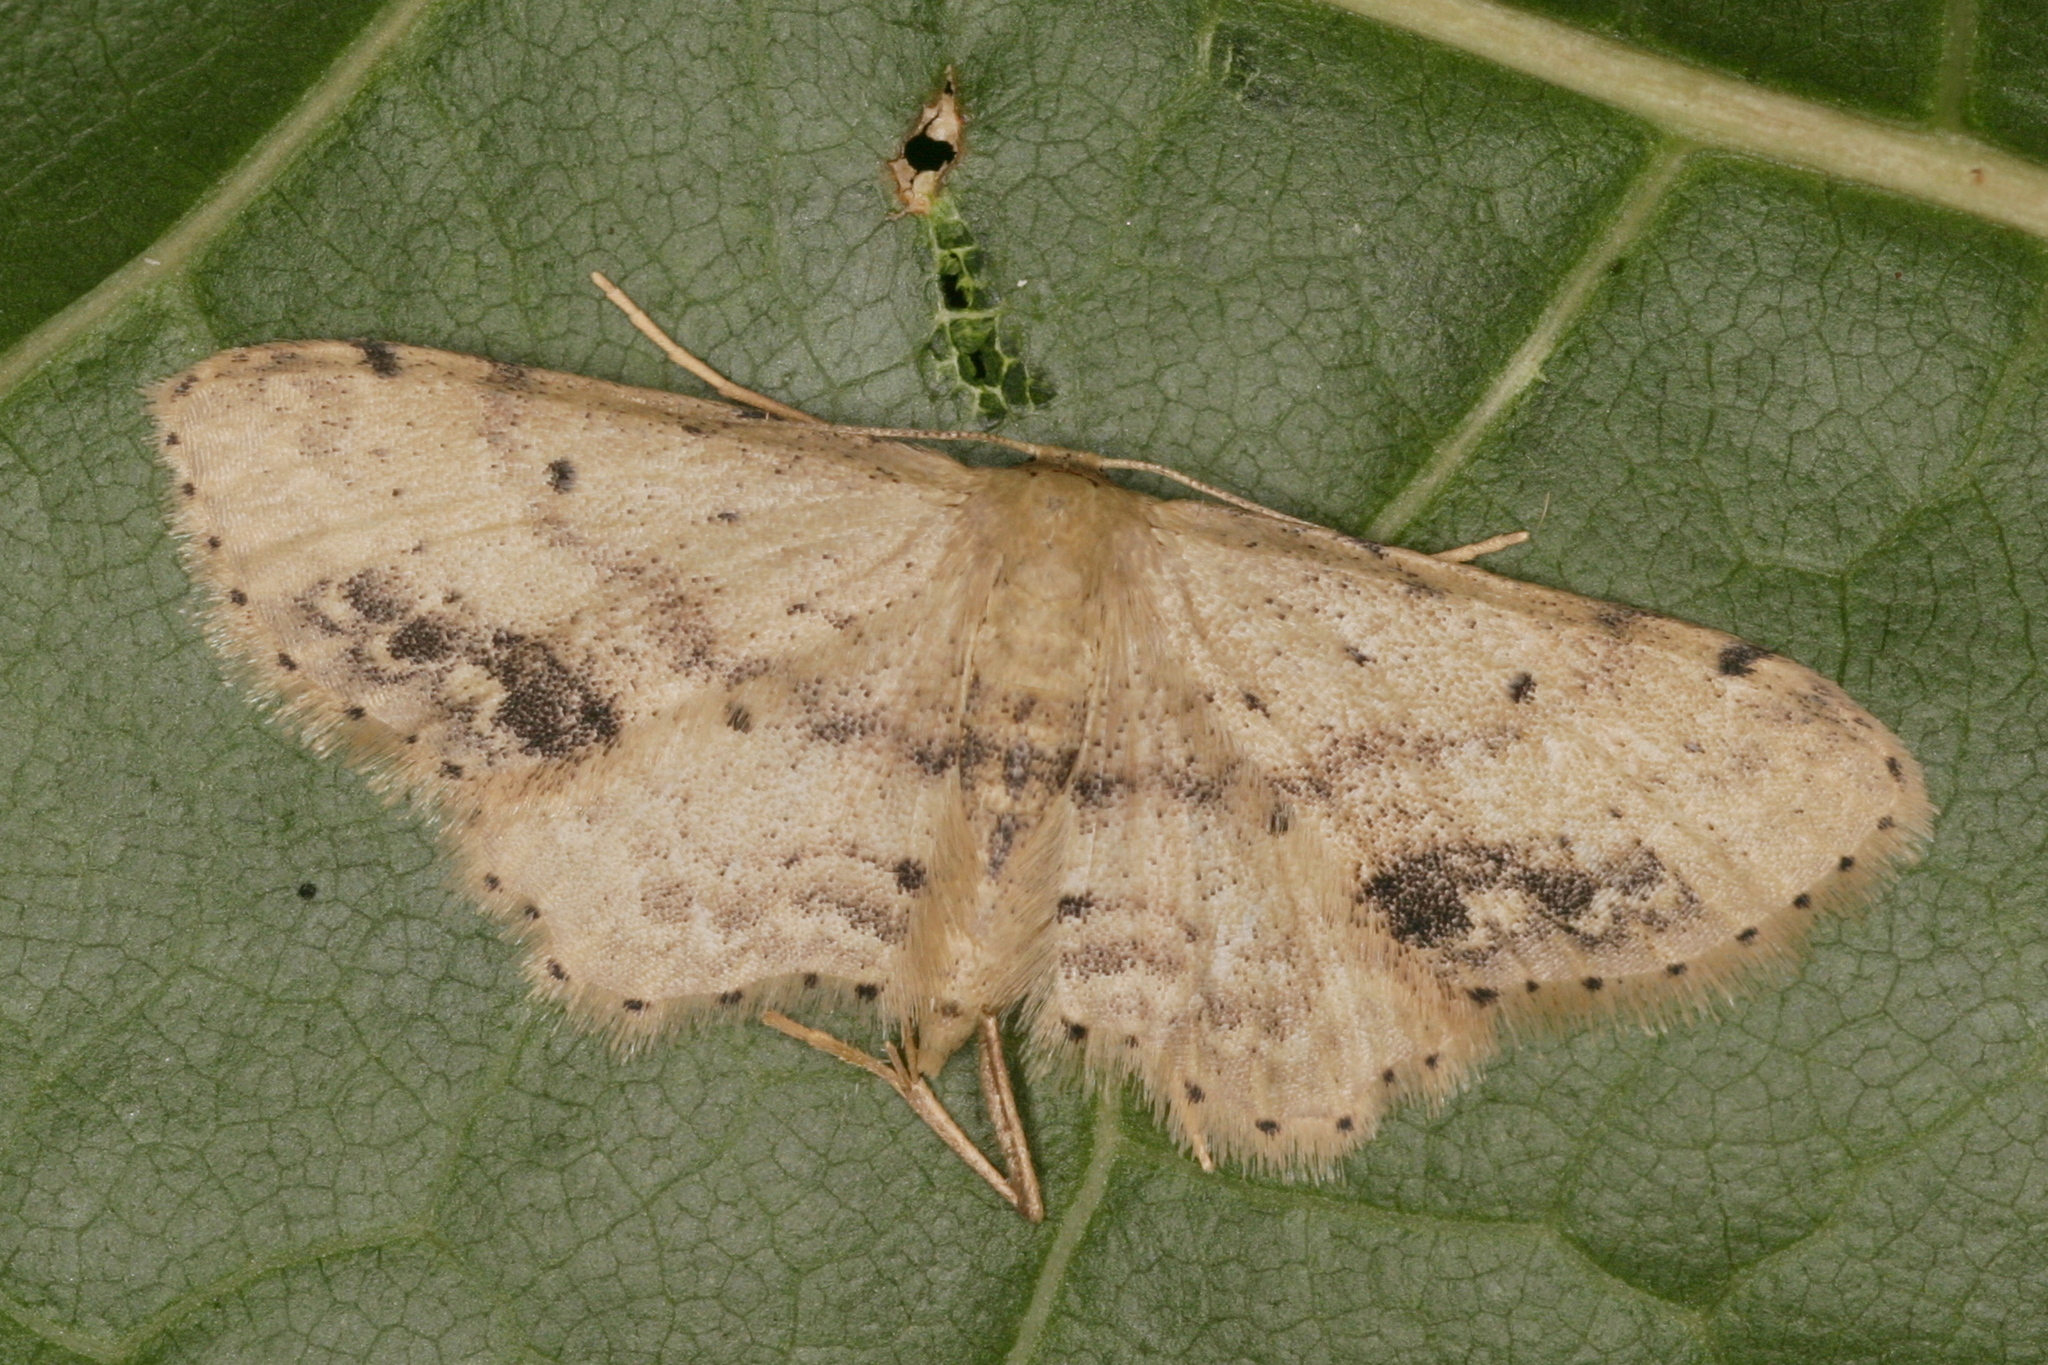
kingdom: Animalia
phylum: Arthropoda
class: Insecta
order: Lepidoptera
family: Geometridae
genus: Idaea
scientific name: Idaea dimidiata
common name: Single-dotted wave
